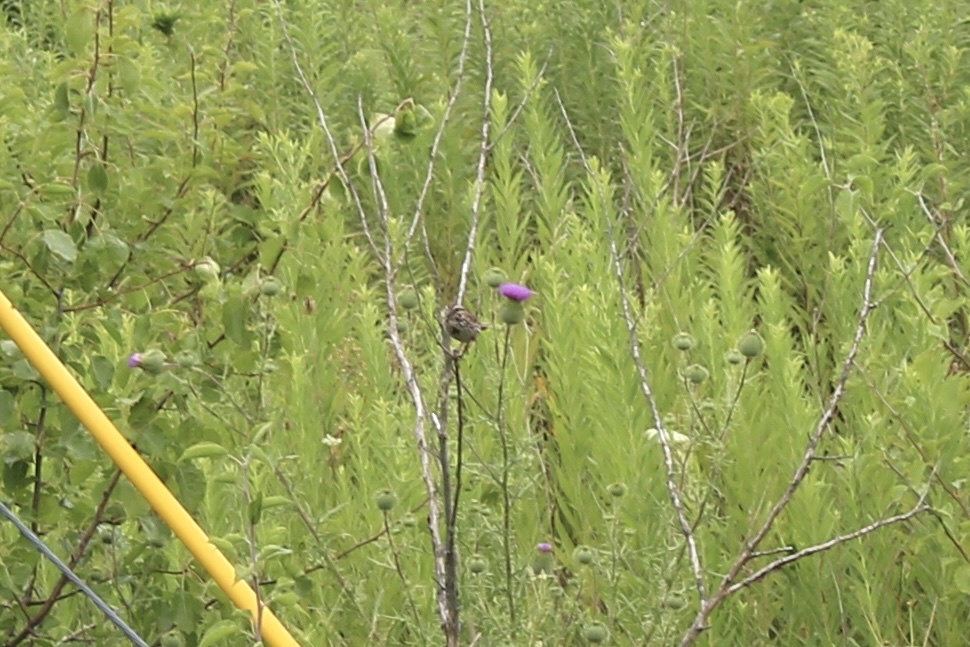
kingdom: Animalia
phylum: Chordata
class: Aves
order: Passeriformes
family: Passerellidae
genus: Melospiza
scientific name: Melospiza melodia
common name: Song sparrow
